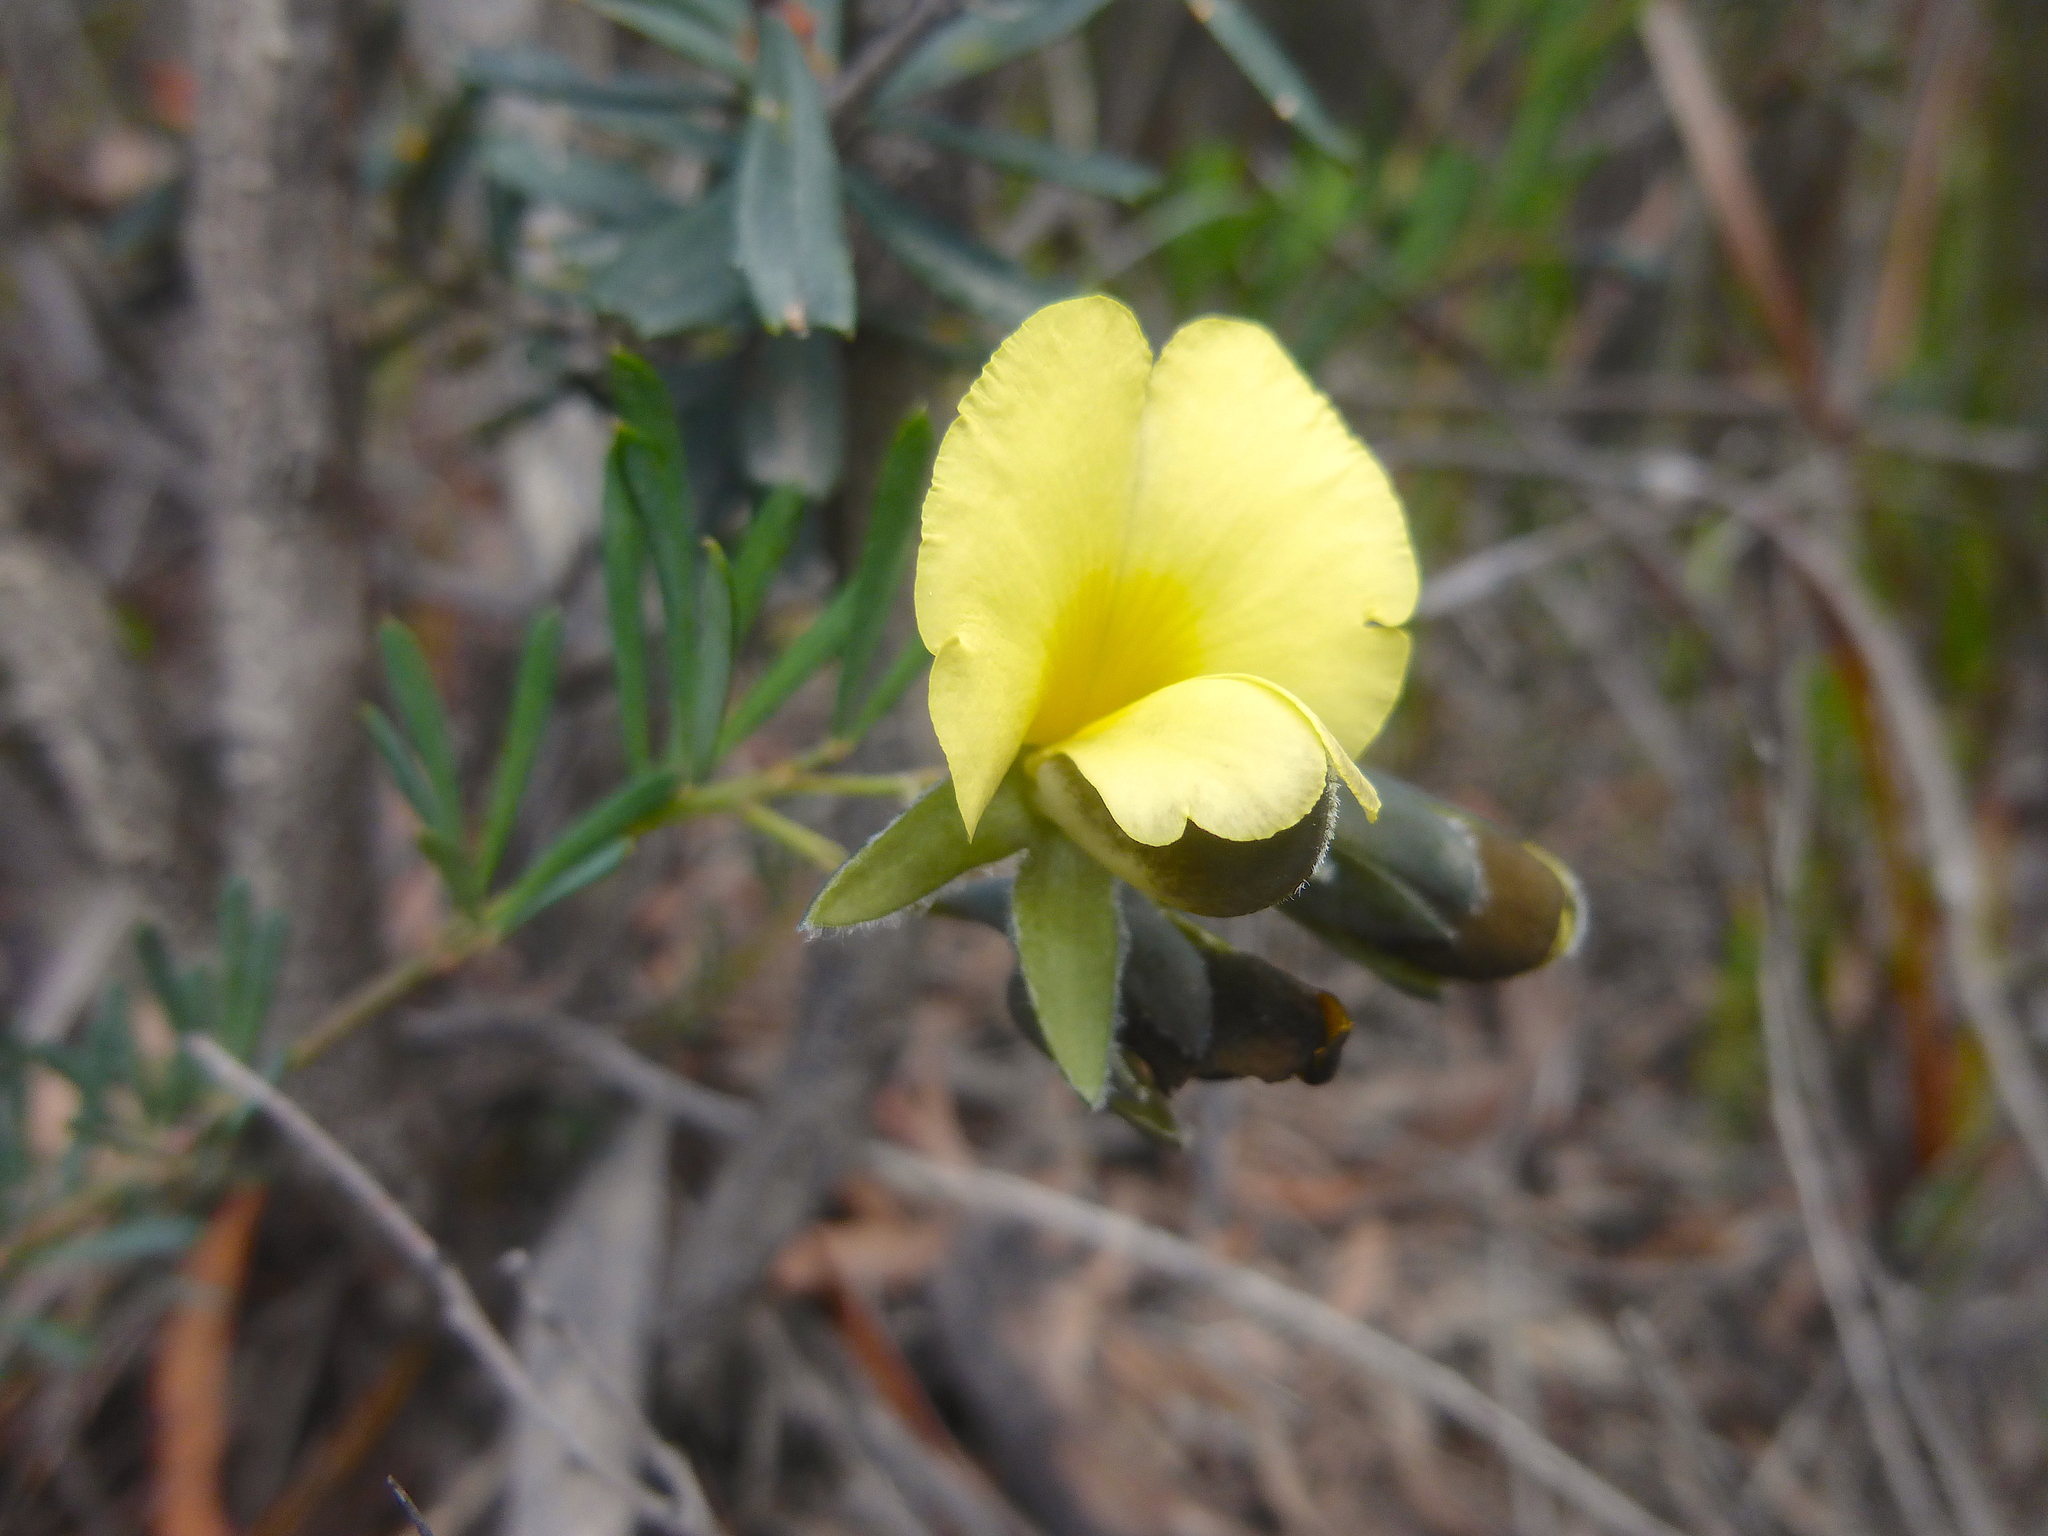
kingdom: Plantae
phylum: Tracheophyta
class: Magnoliopsida
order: Fabales
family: Fabaceae
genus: Gompholobium
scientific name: Gompholobium huegelii
